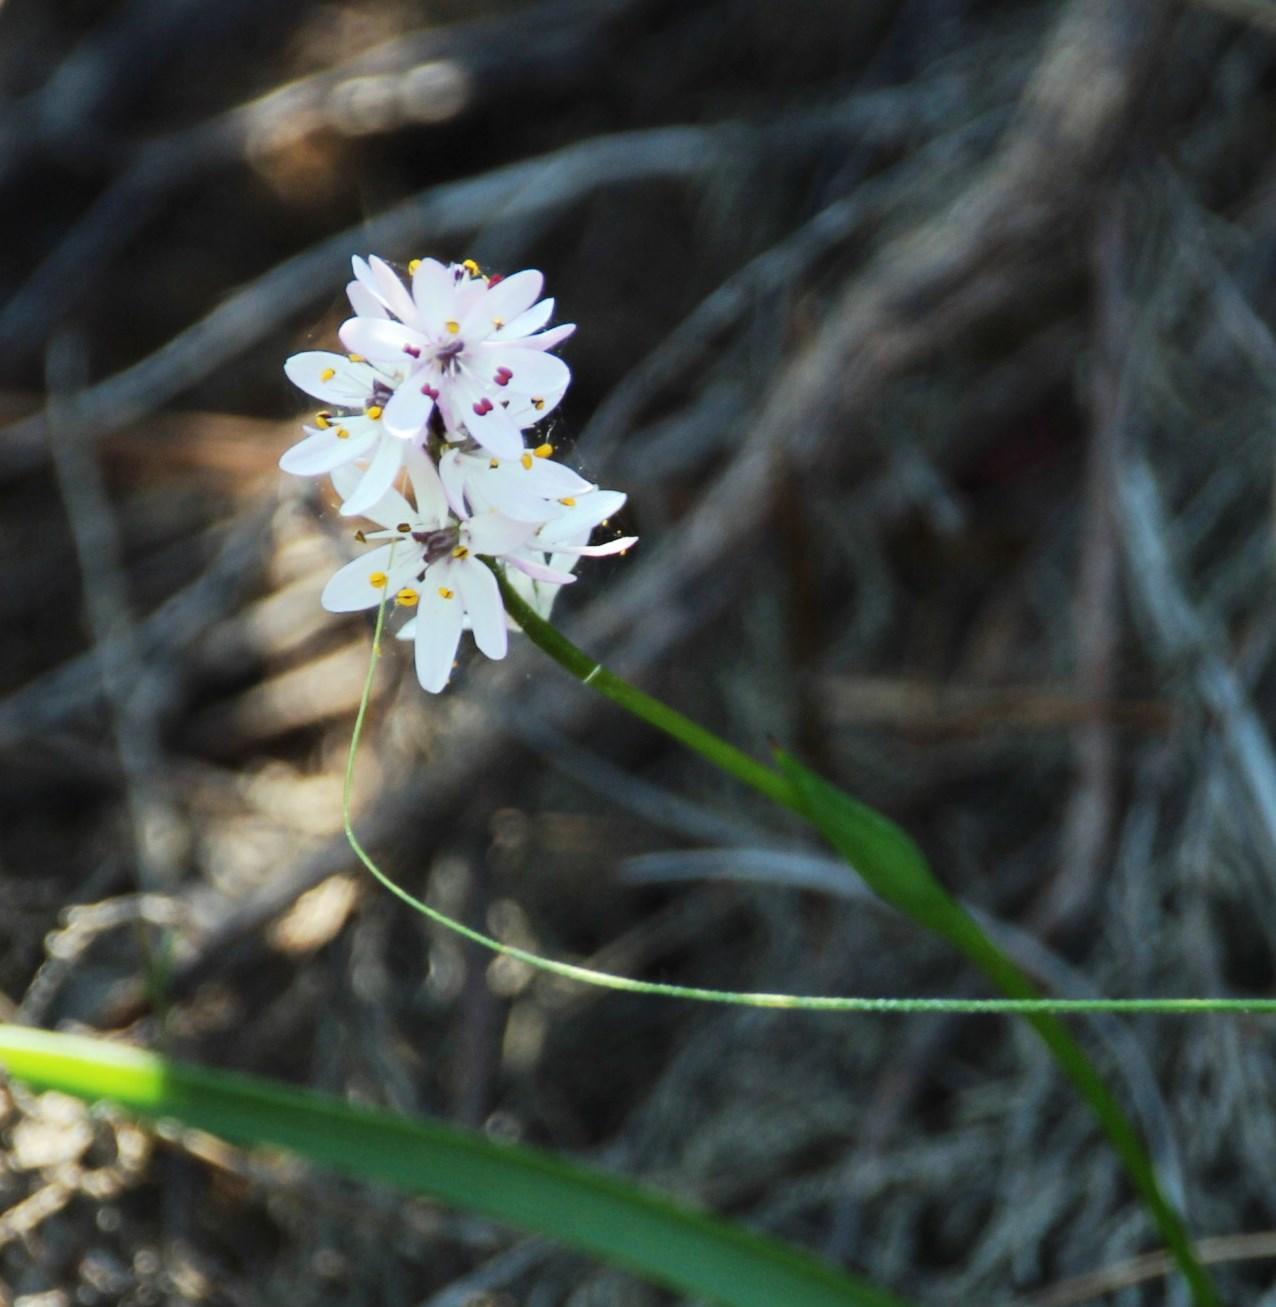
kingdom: Plantae
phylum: Tracheophyta
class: Liliopsida
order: Liliales
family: Colchicaceae
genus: Wurmbea
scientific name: Wurmbea punctata
